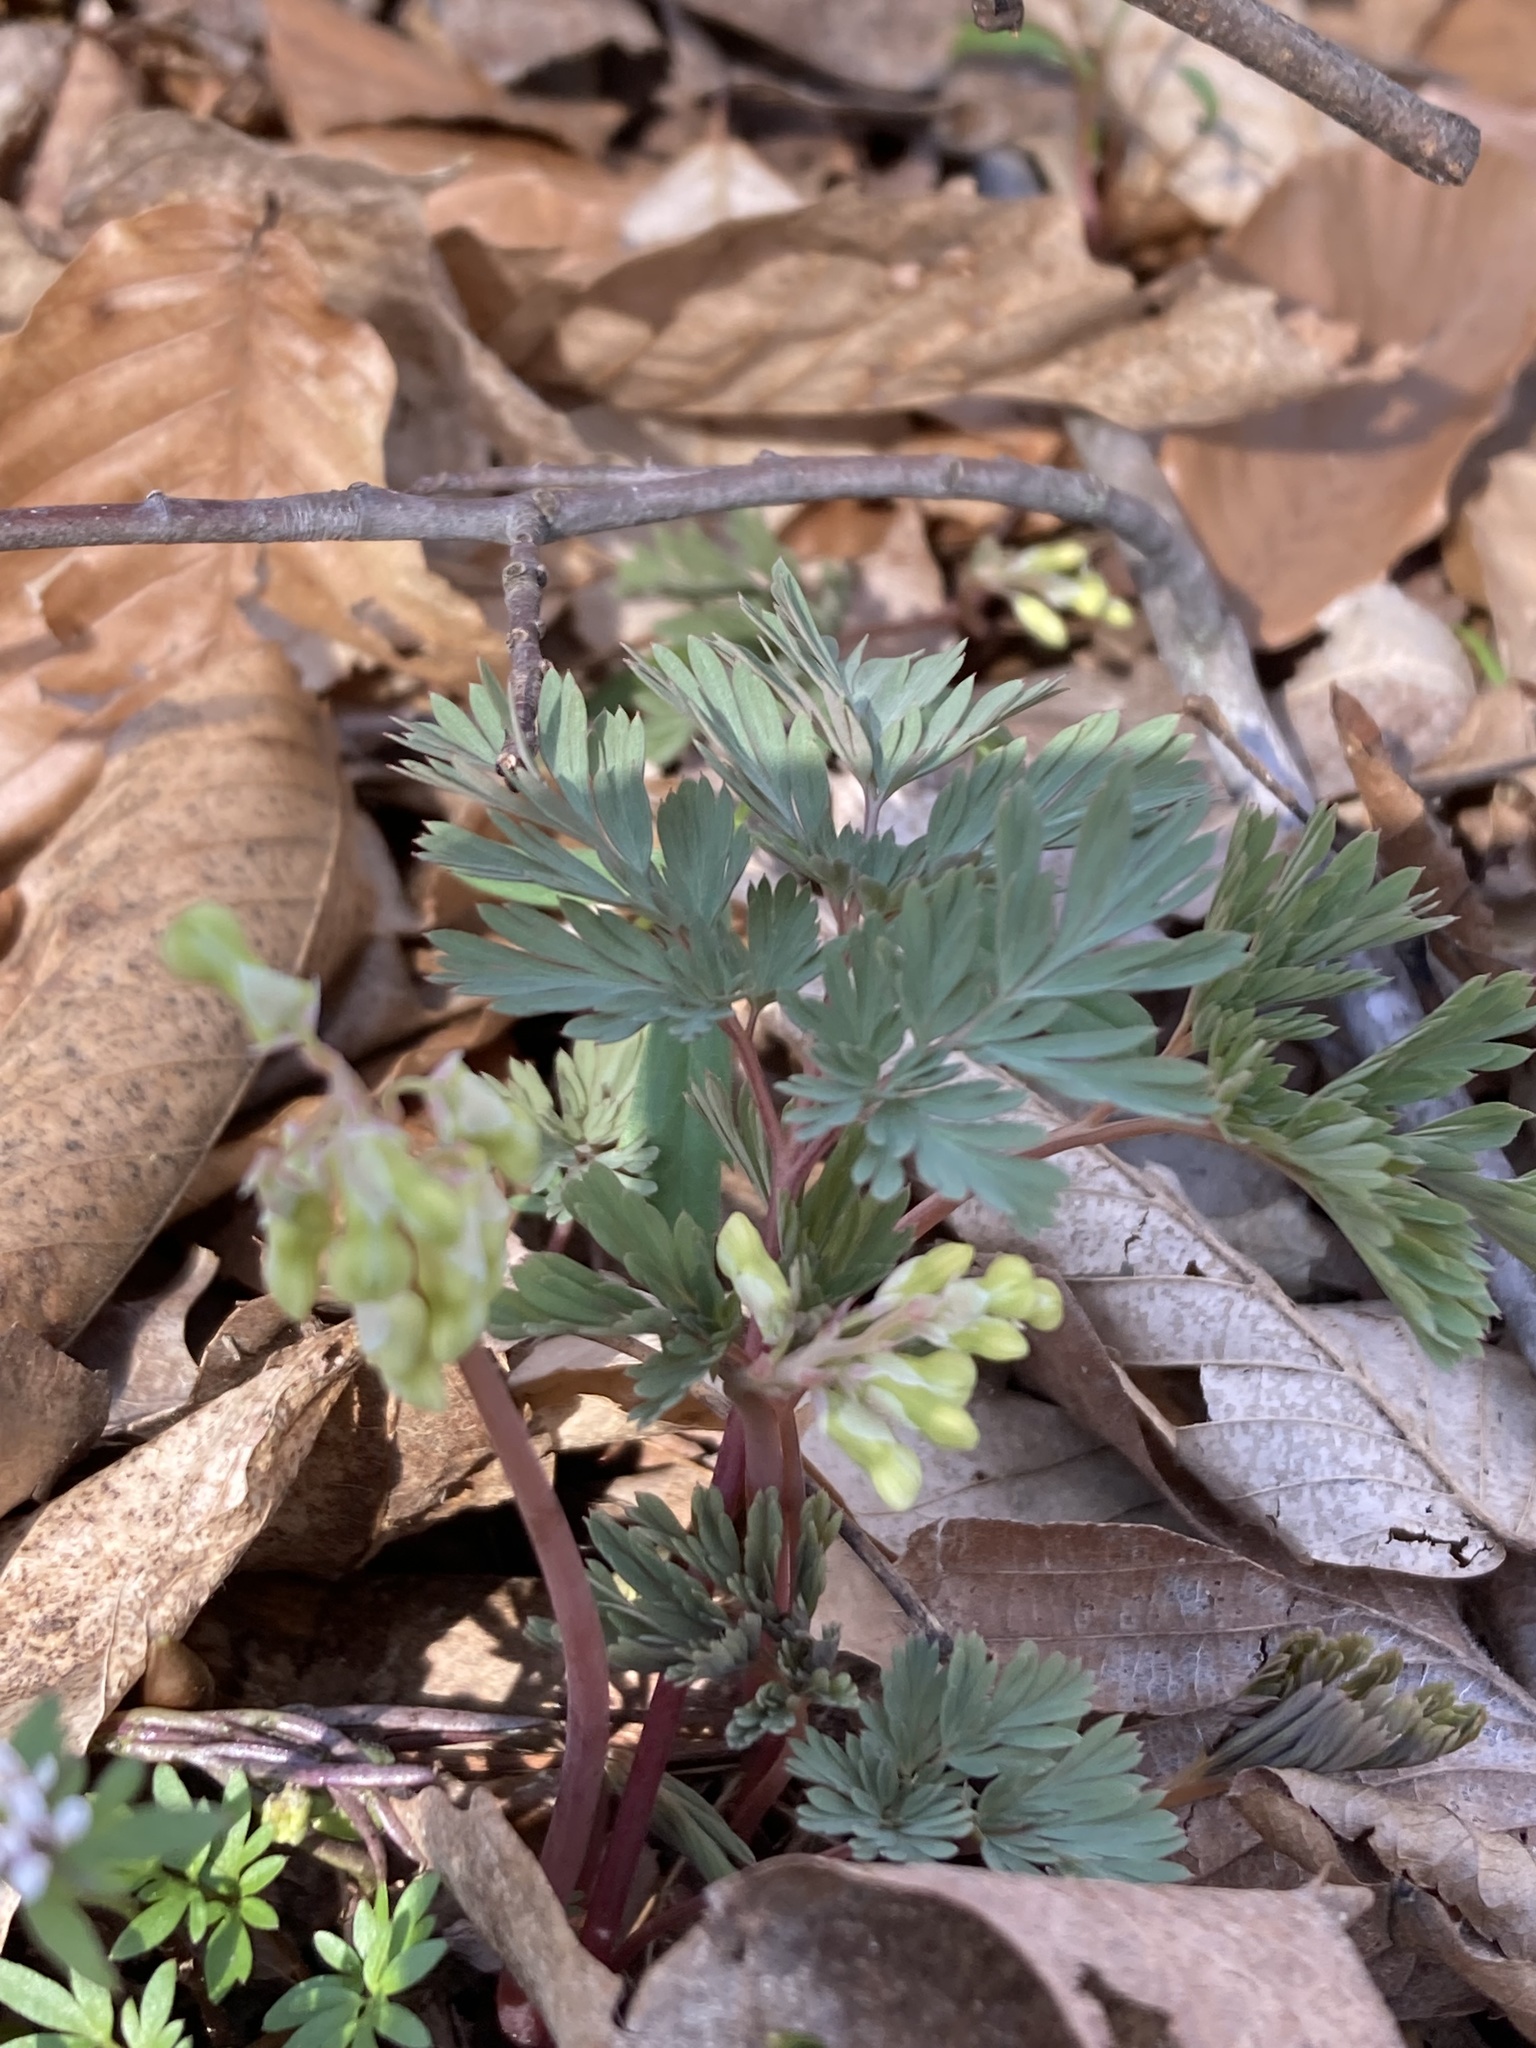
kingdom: Plantae
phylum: Tracheophyta
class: Magnoliopsida
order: Ranunculales
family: Papaveraceae
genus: Dicentra
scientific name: Dicentra cucullaria
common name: Dutchman's breeches
